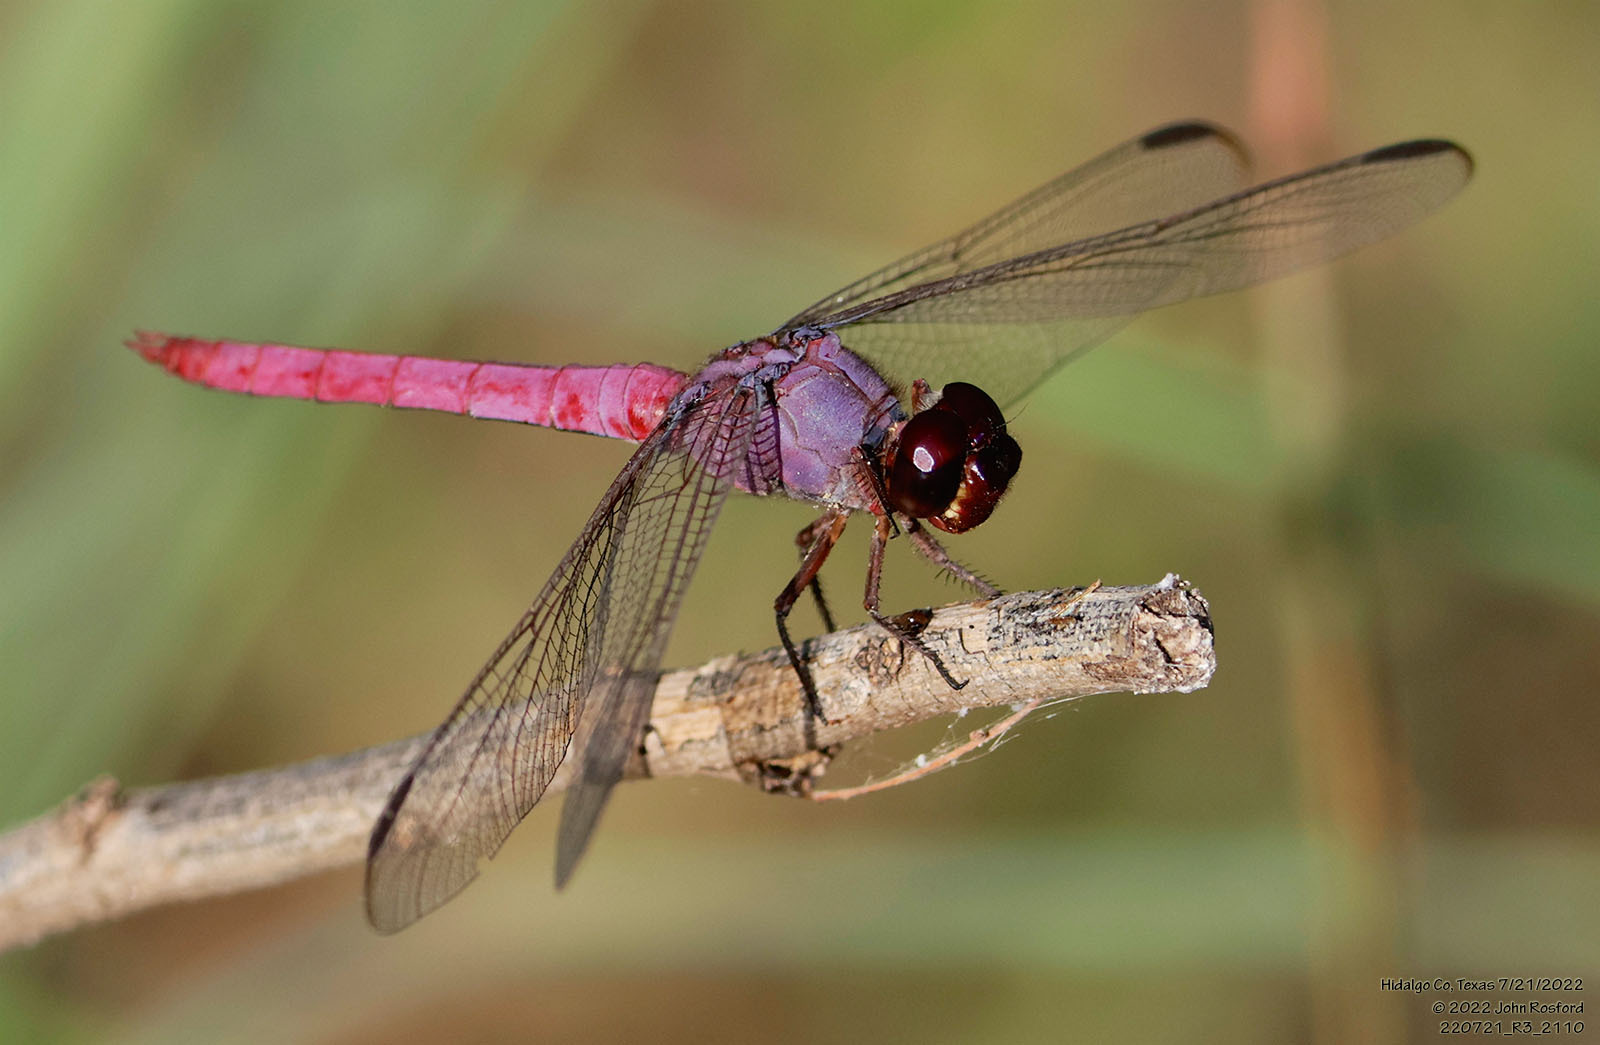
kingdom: Animalia
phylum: Arthropoda
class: Insecta
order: Odonata
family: Libellulidae
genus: Orthemis
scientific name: Orthemis ferruginea
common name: Roseate skimmer
